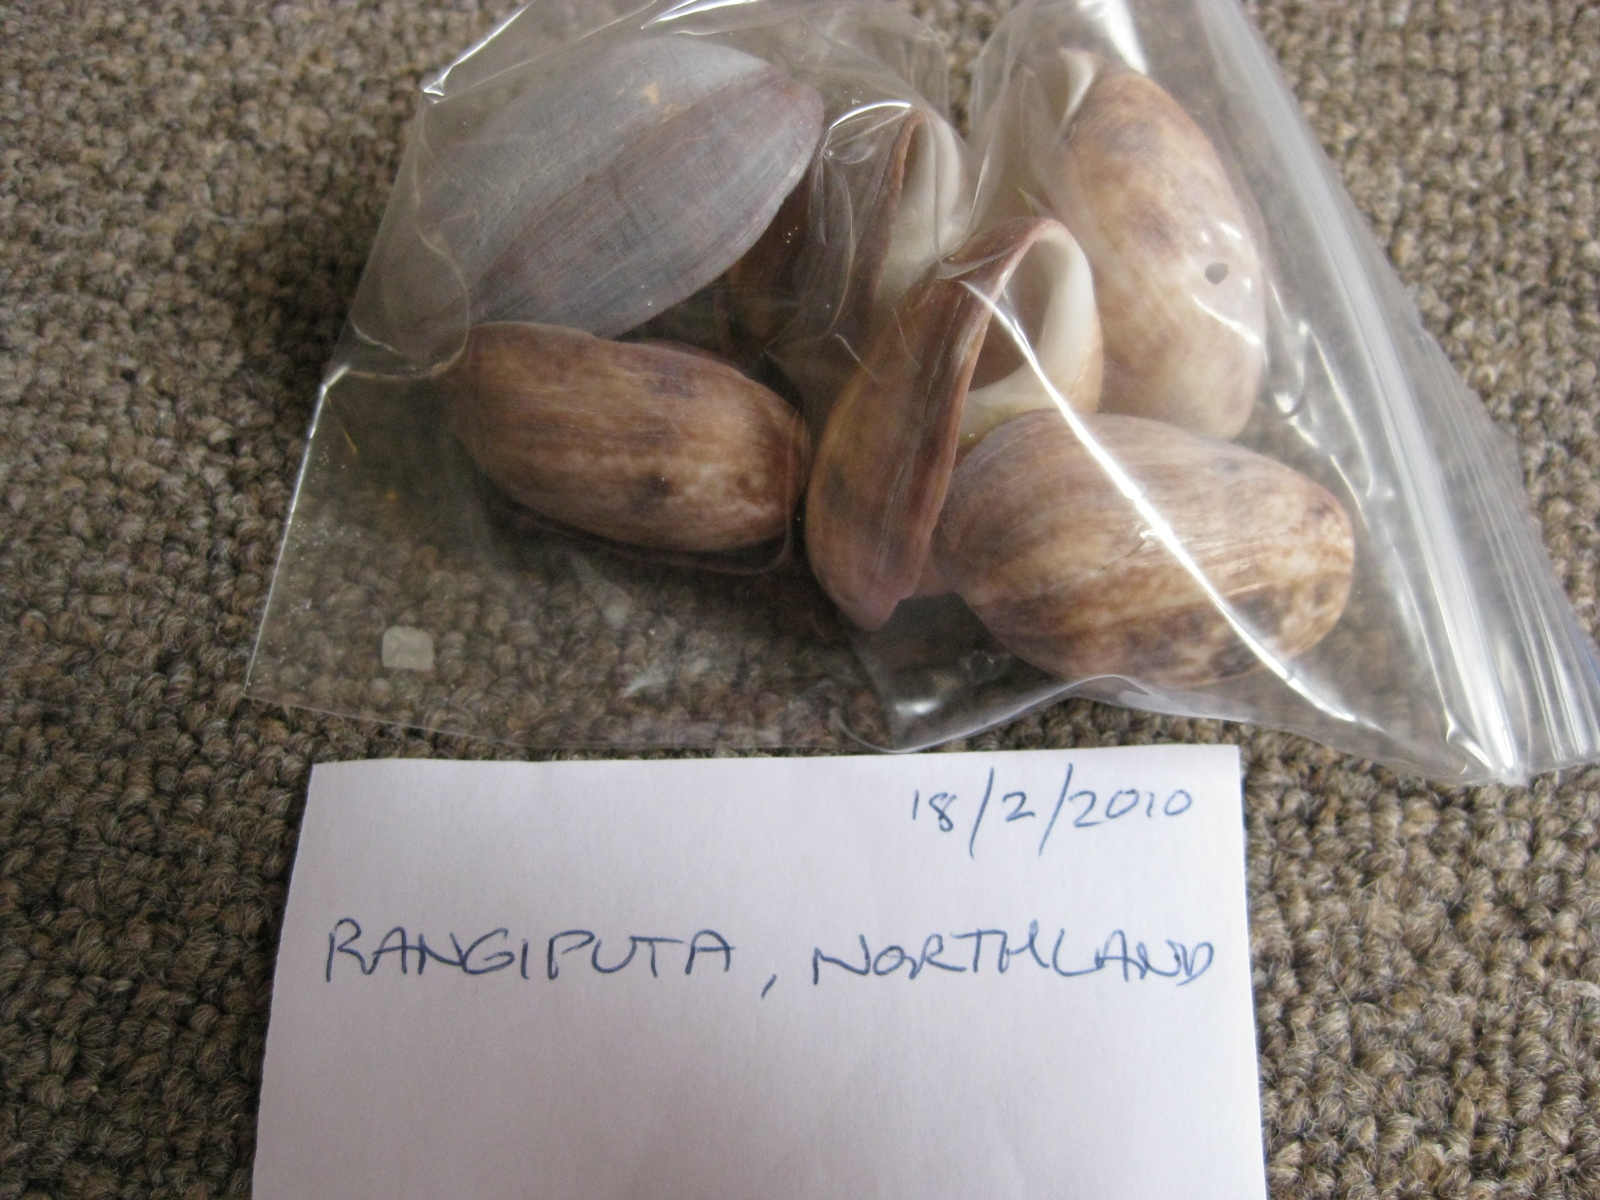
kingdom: Animalia
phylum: Mollusca
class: Gastropoda
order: Cephalaspidea
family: Bullidae
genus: Bulla
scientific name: Bulla quoyii
